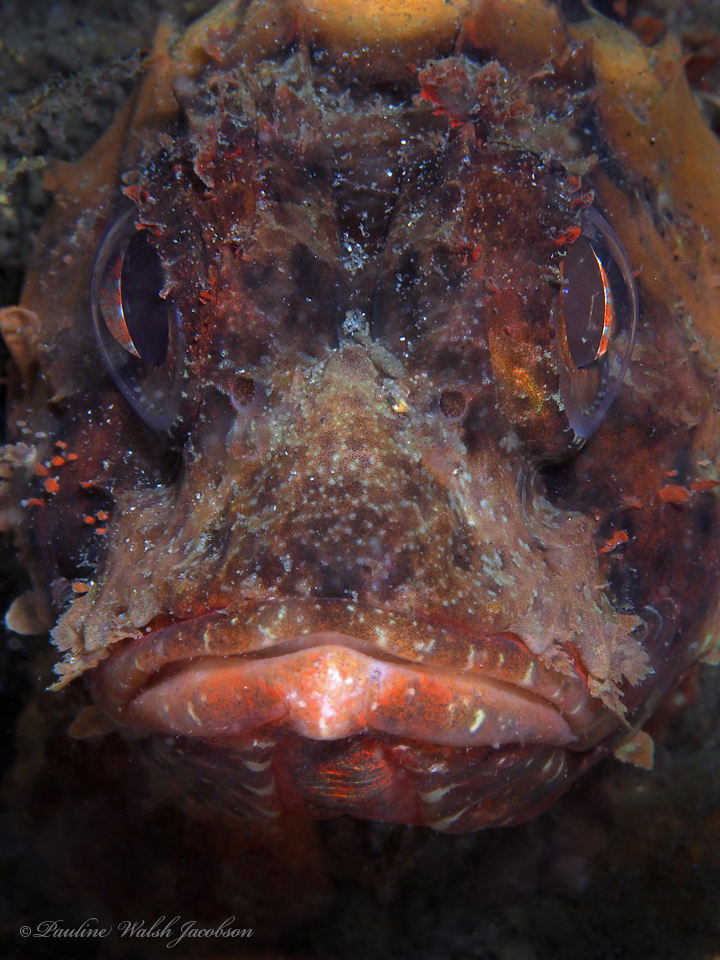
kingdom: Animalia
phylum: Chordata
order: Scorpaeniformes
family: Scorpaenidae
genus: Scorpaena
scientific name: Scorpaena brasiliensis
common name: Barbfish
